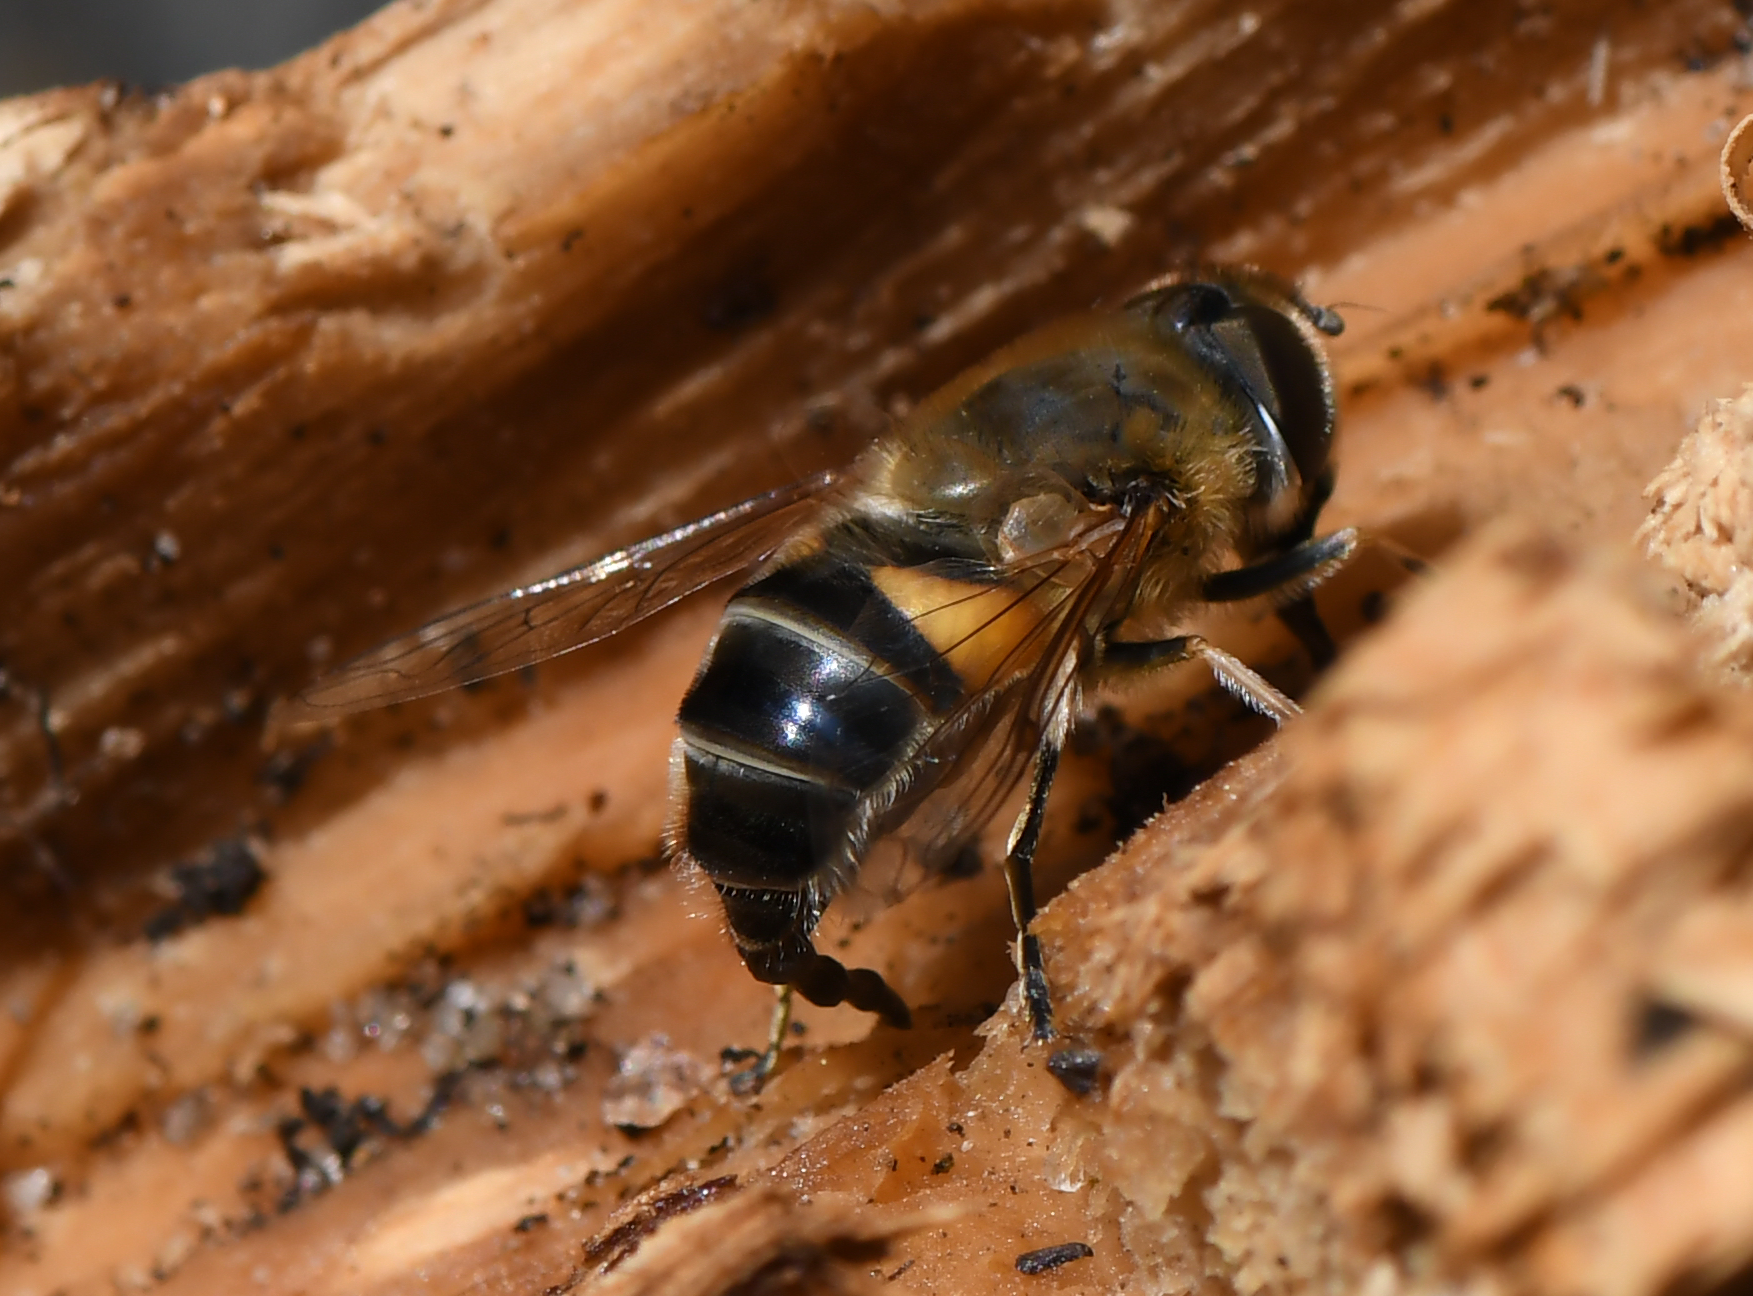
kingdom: Animalia
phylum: Arthropoda
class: Insecta
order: Diptera
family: Syrphidae
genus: Eristalis
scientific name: Eristalis pertinax
